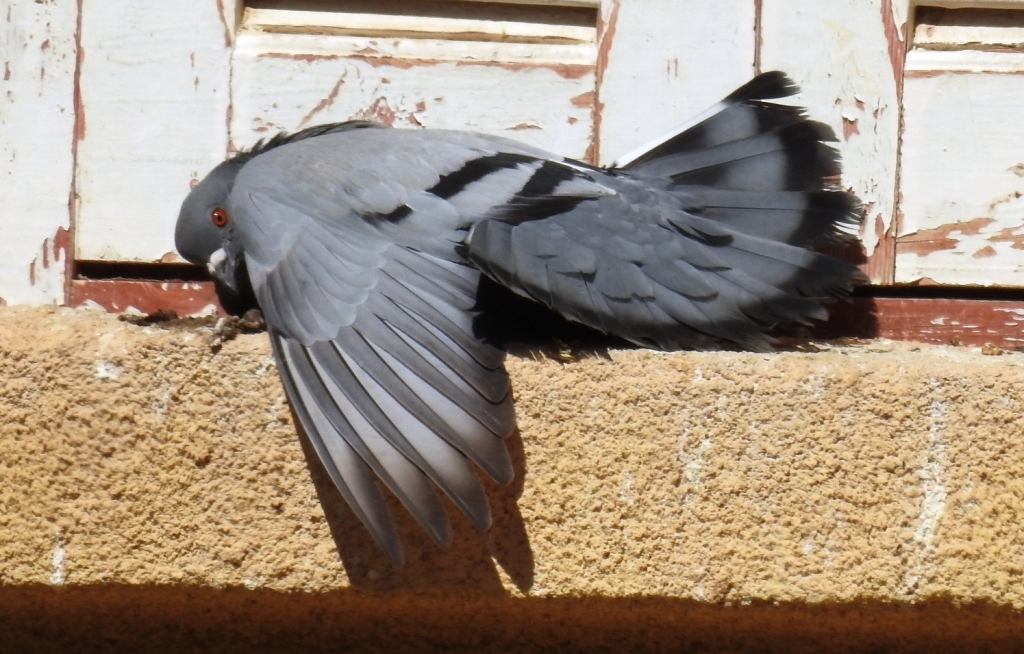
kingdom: Animalia
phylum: Chordata
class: Aves
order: Columbiformes
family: Columbidae
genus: Columba
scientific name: Columba livia
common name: Rock pigeon
